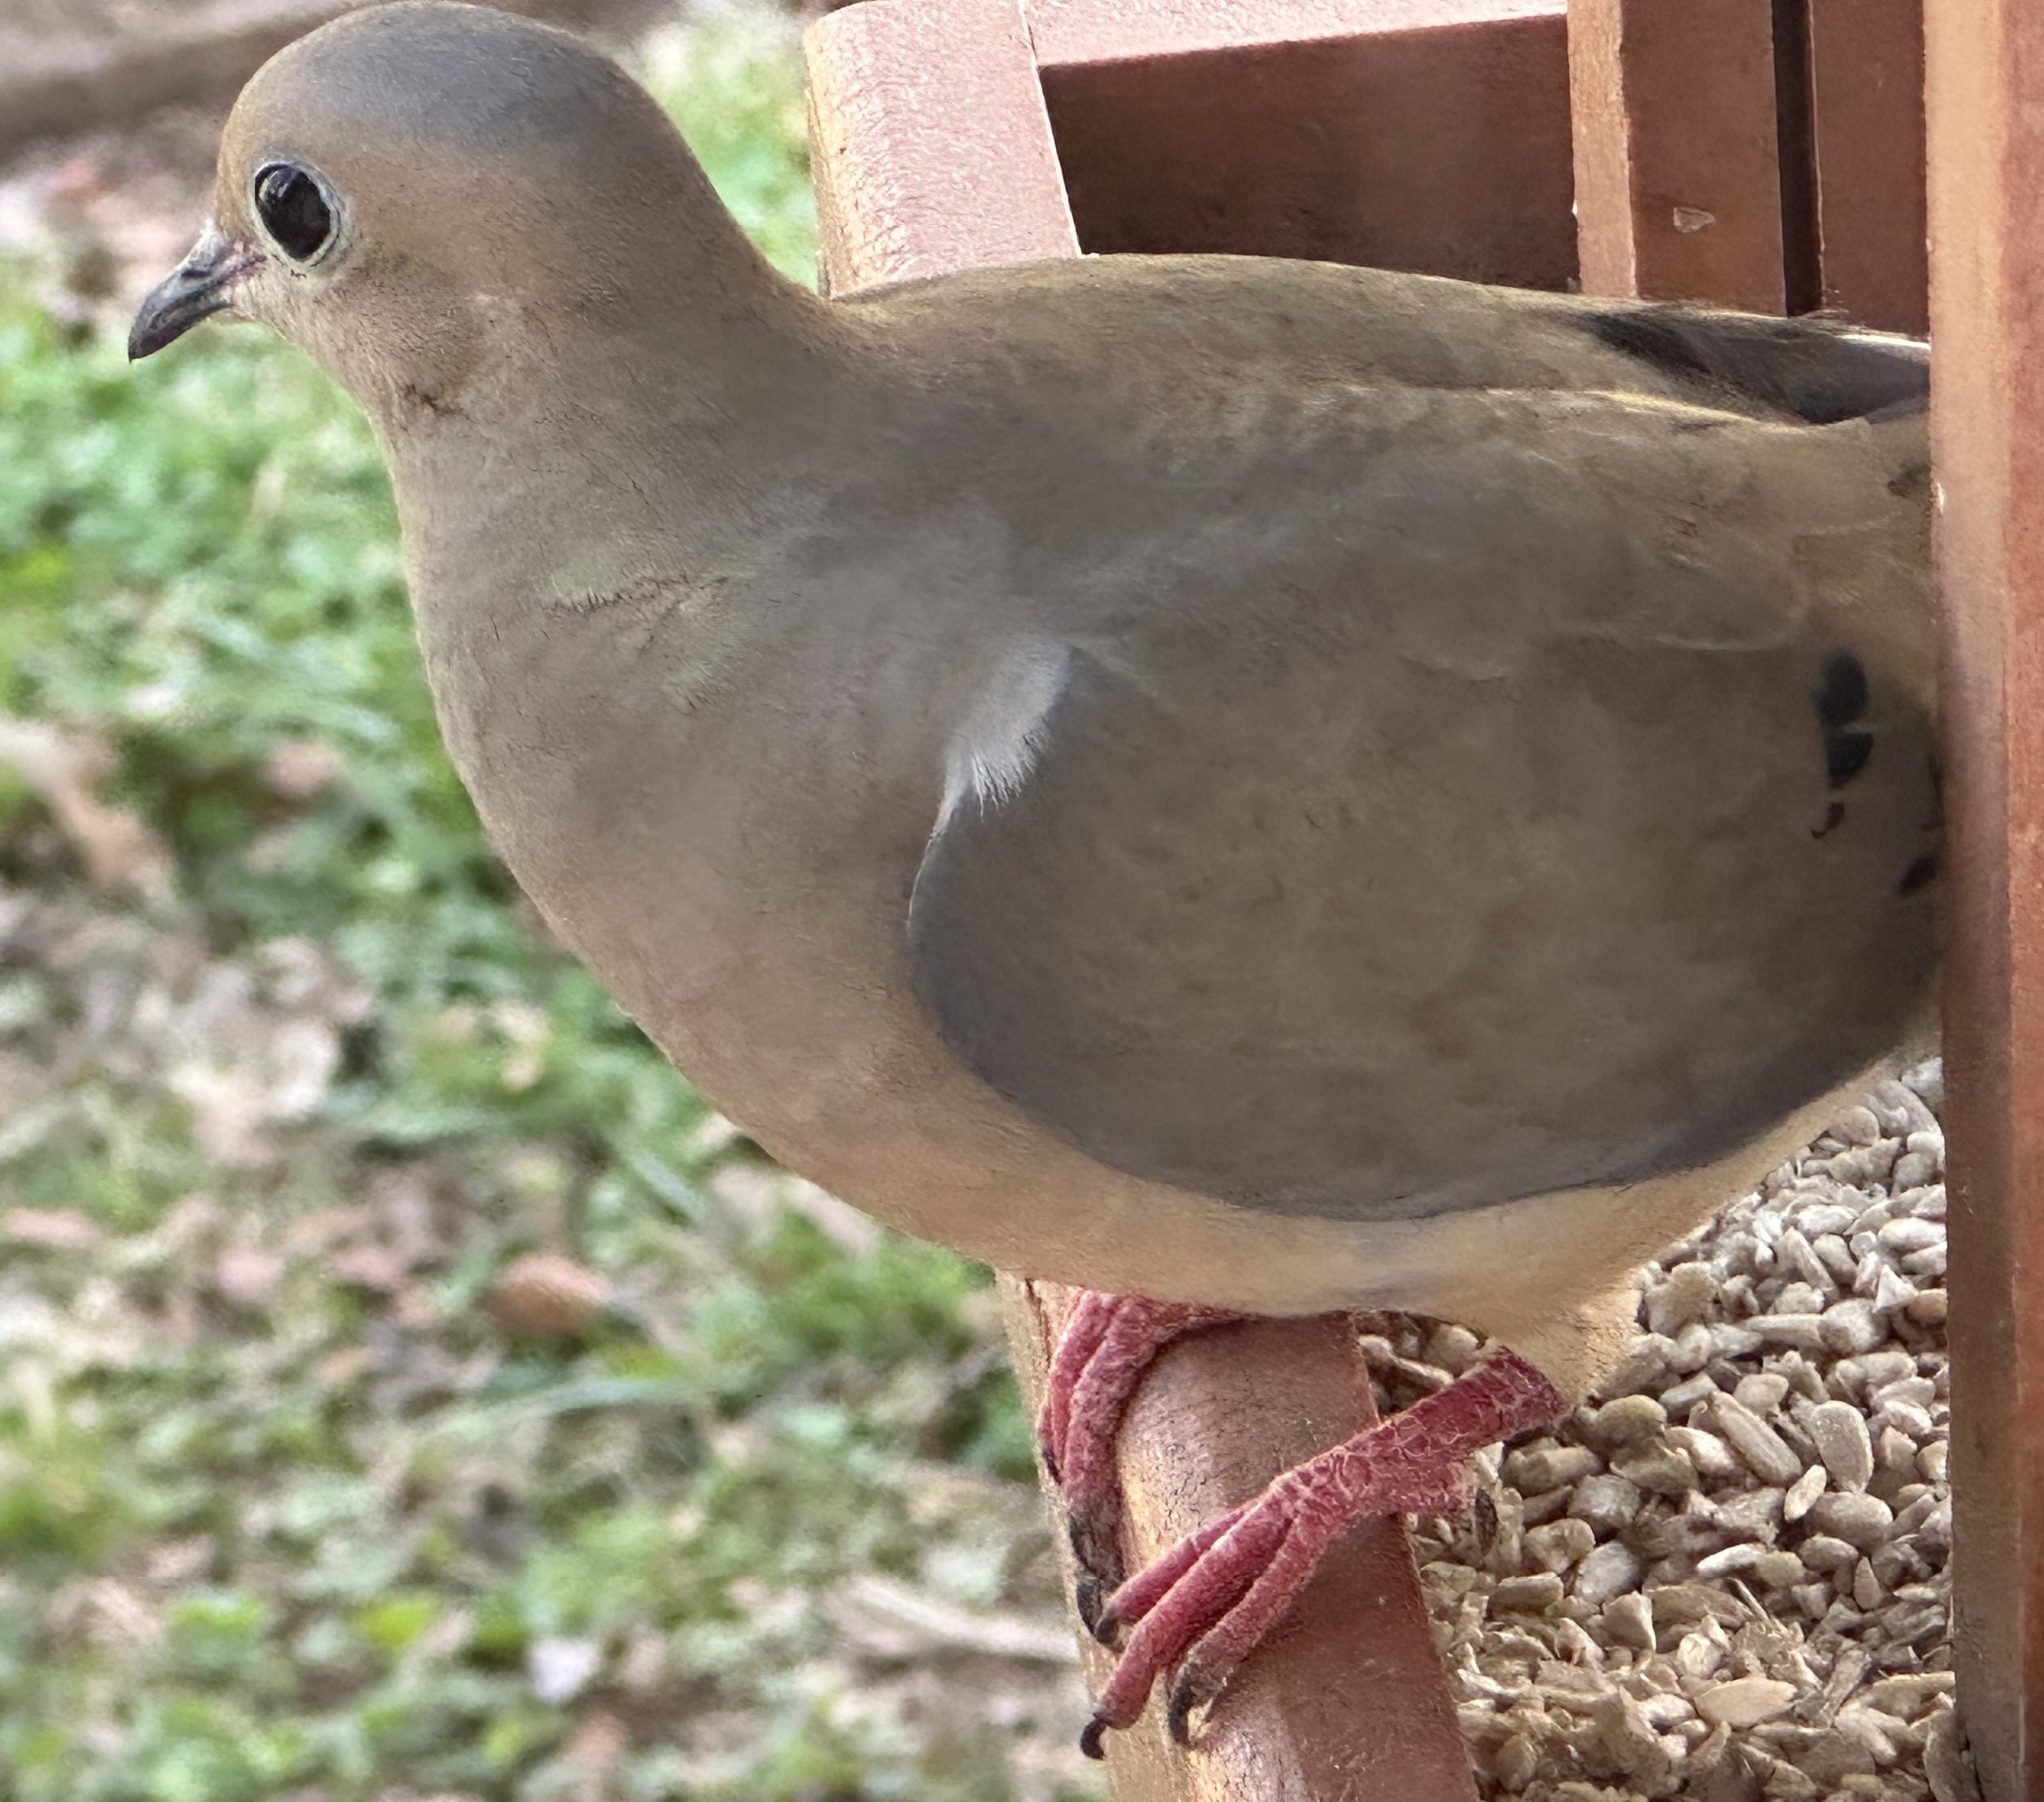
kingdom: Animalia
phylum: Chordata
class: Aves
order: Columbiformes
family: Columbidae
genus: Zenaida
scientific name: Zenaida macroura
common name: Mourning dove
